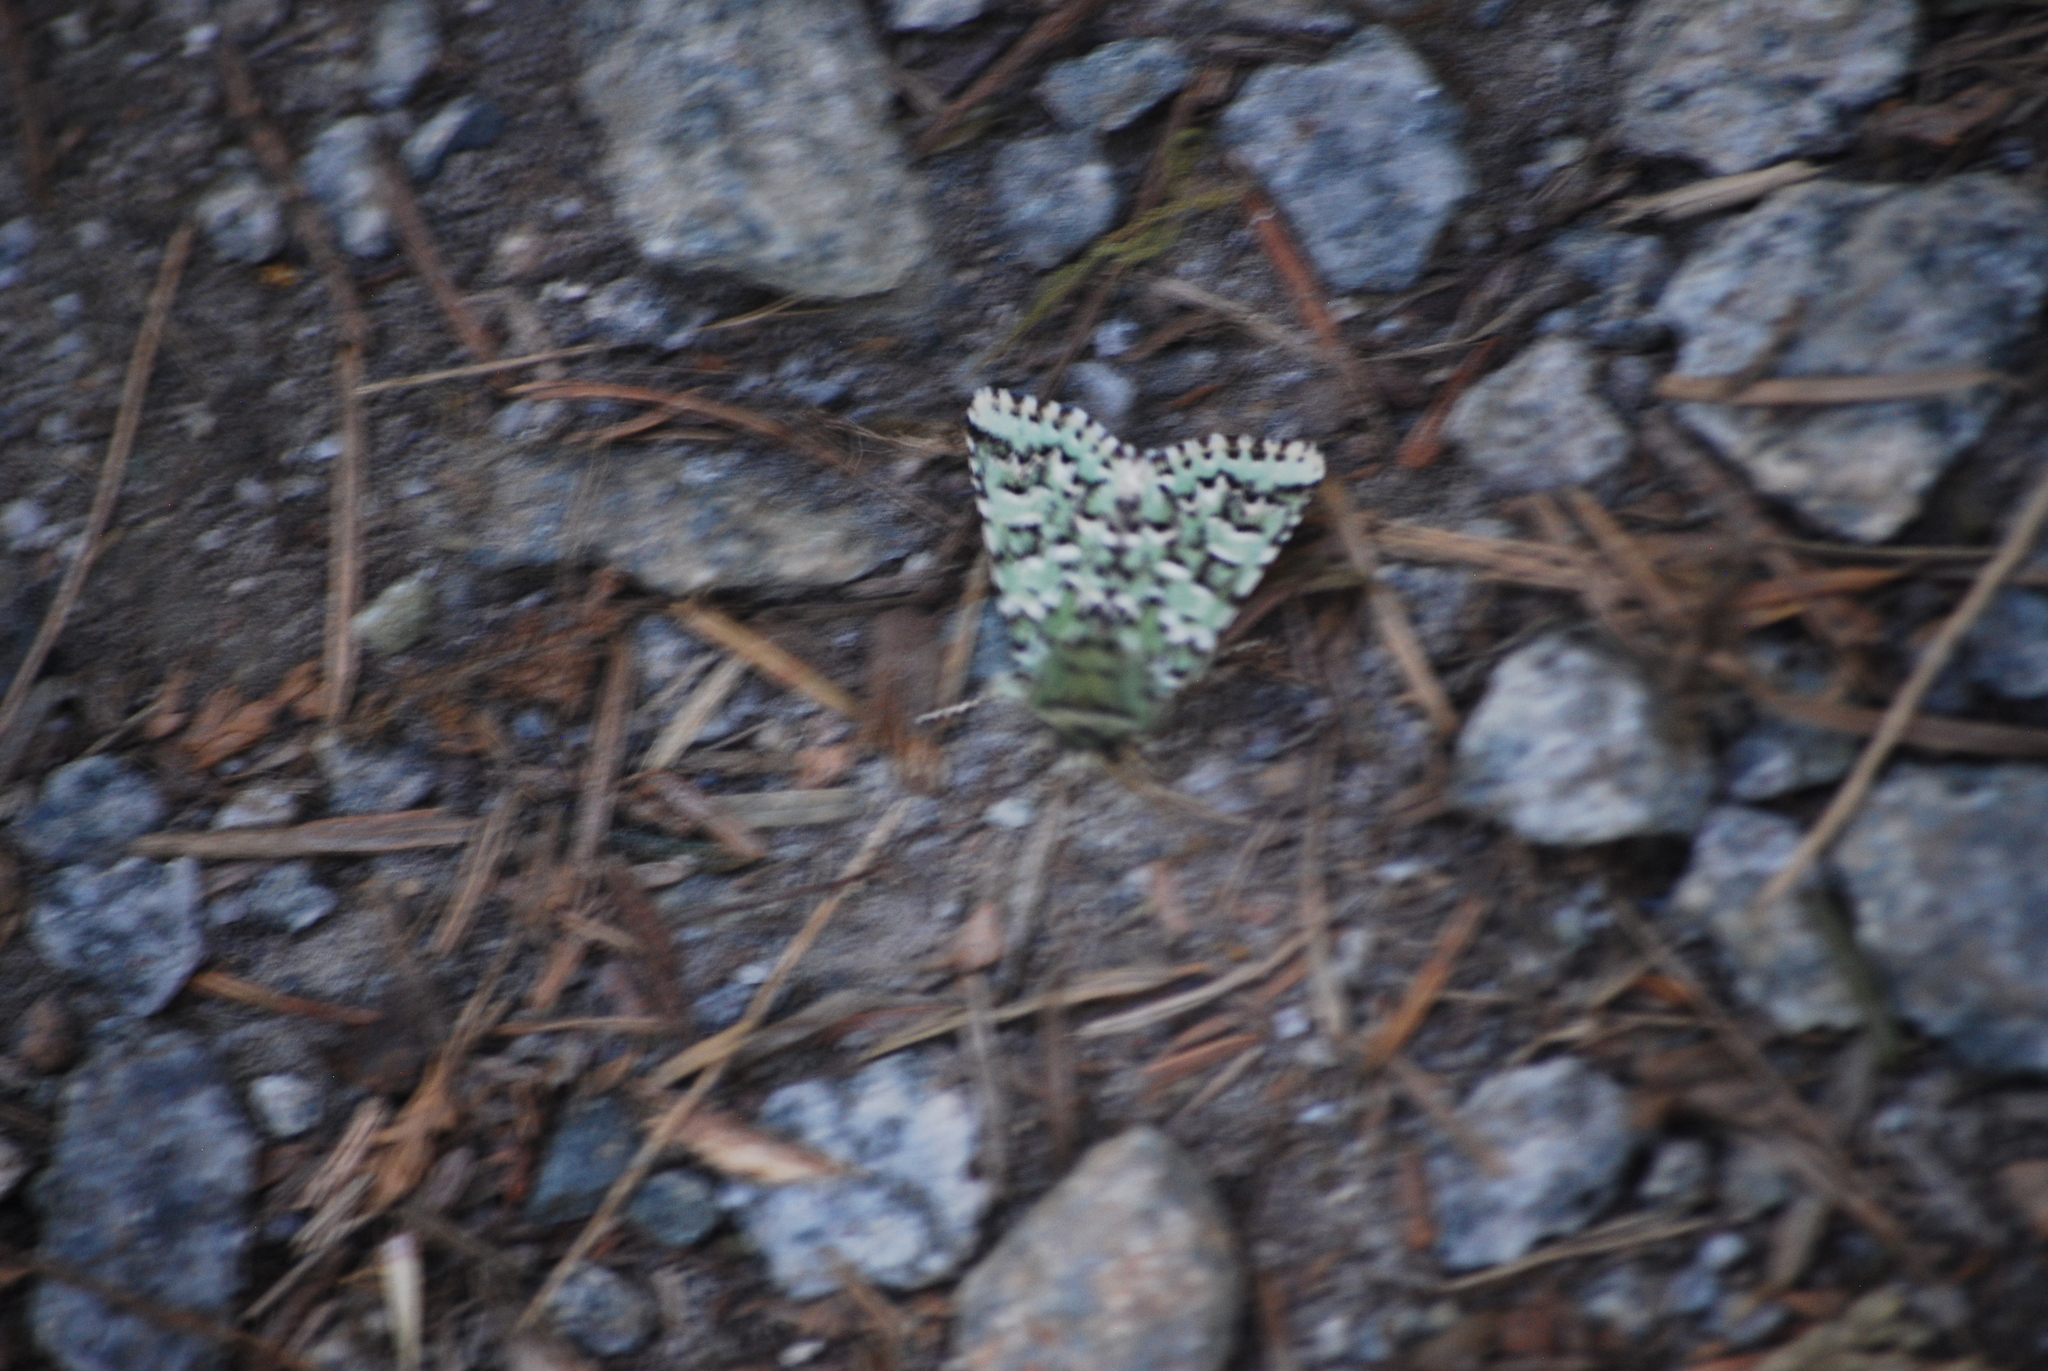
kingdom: Animalia
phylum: Arthropoda
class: Insecta
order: Lepidoptera
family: Noctuidae
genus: Feralia
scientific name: Feralia comstocki
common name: Comstock's sallow
